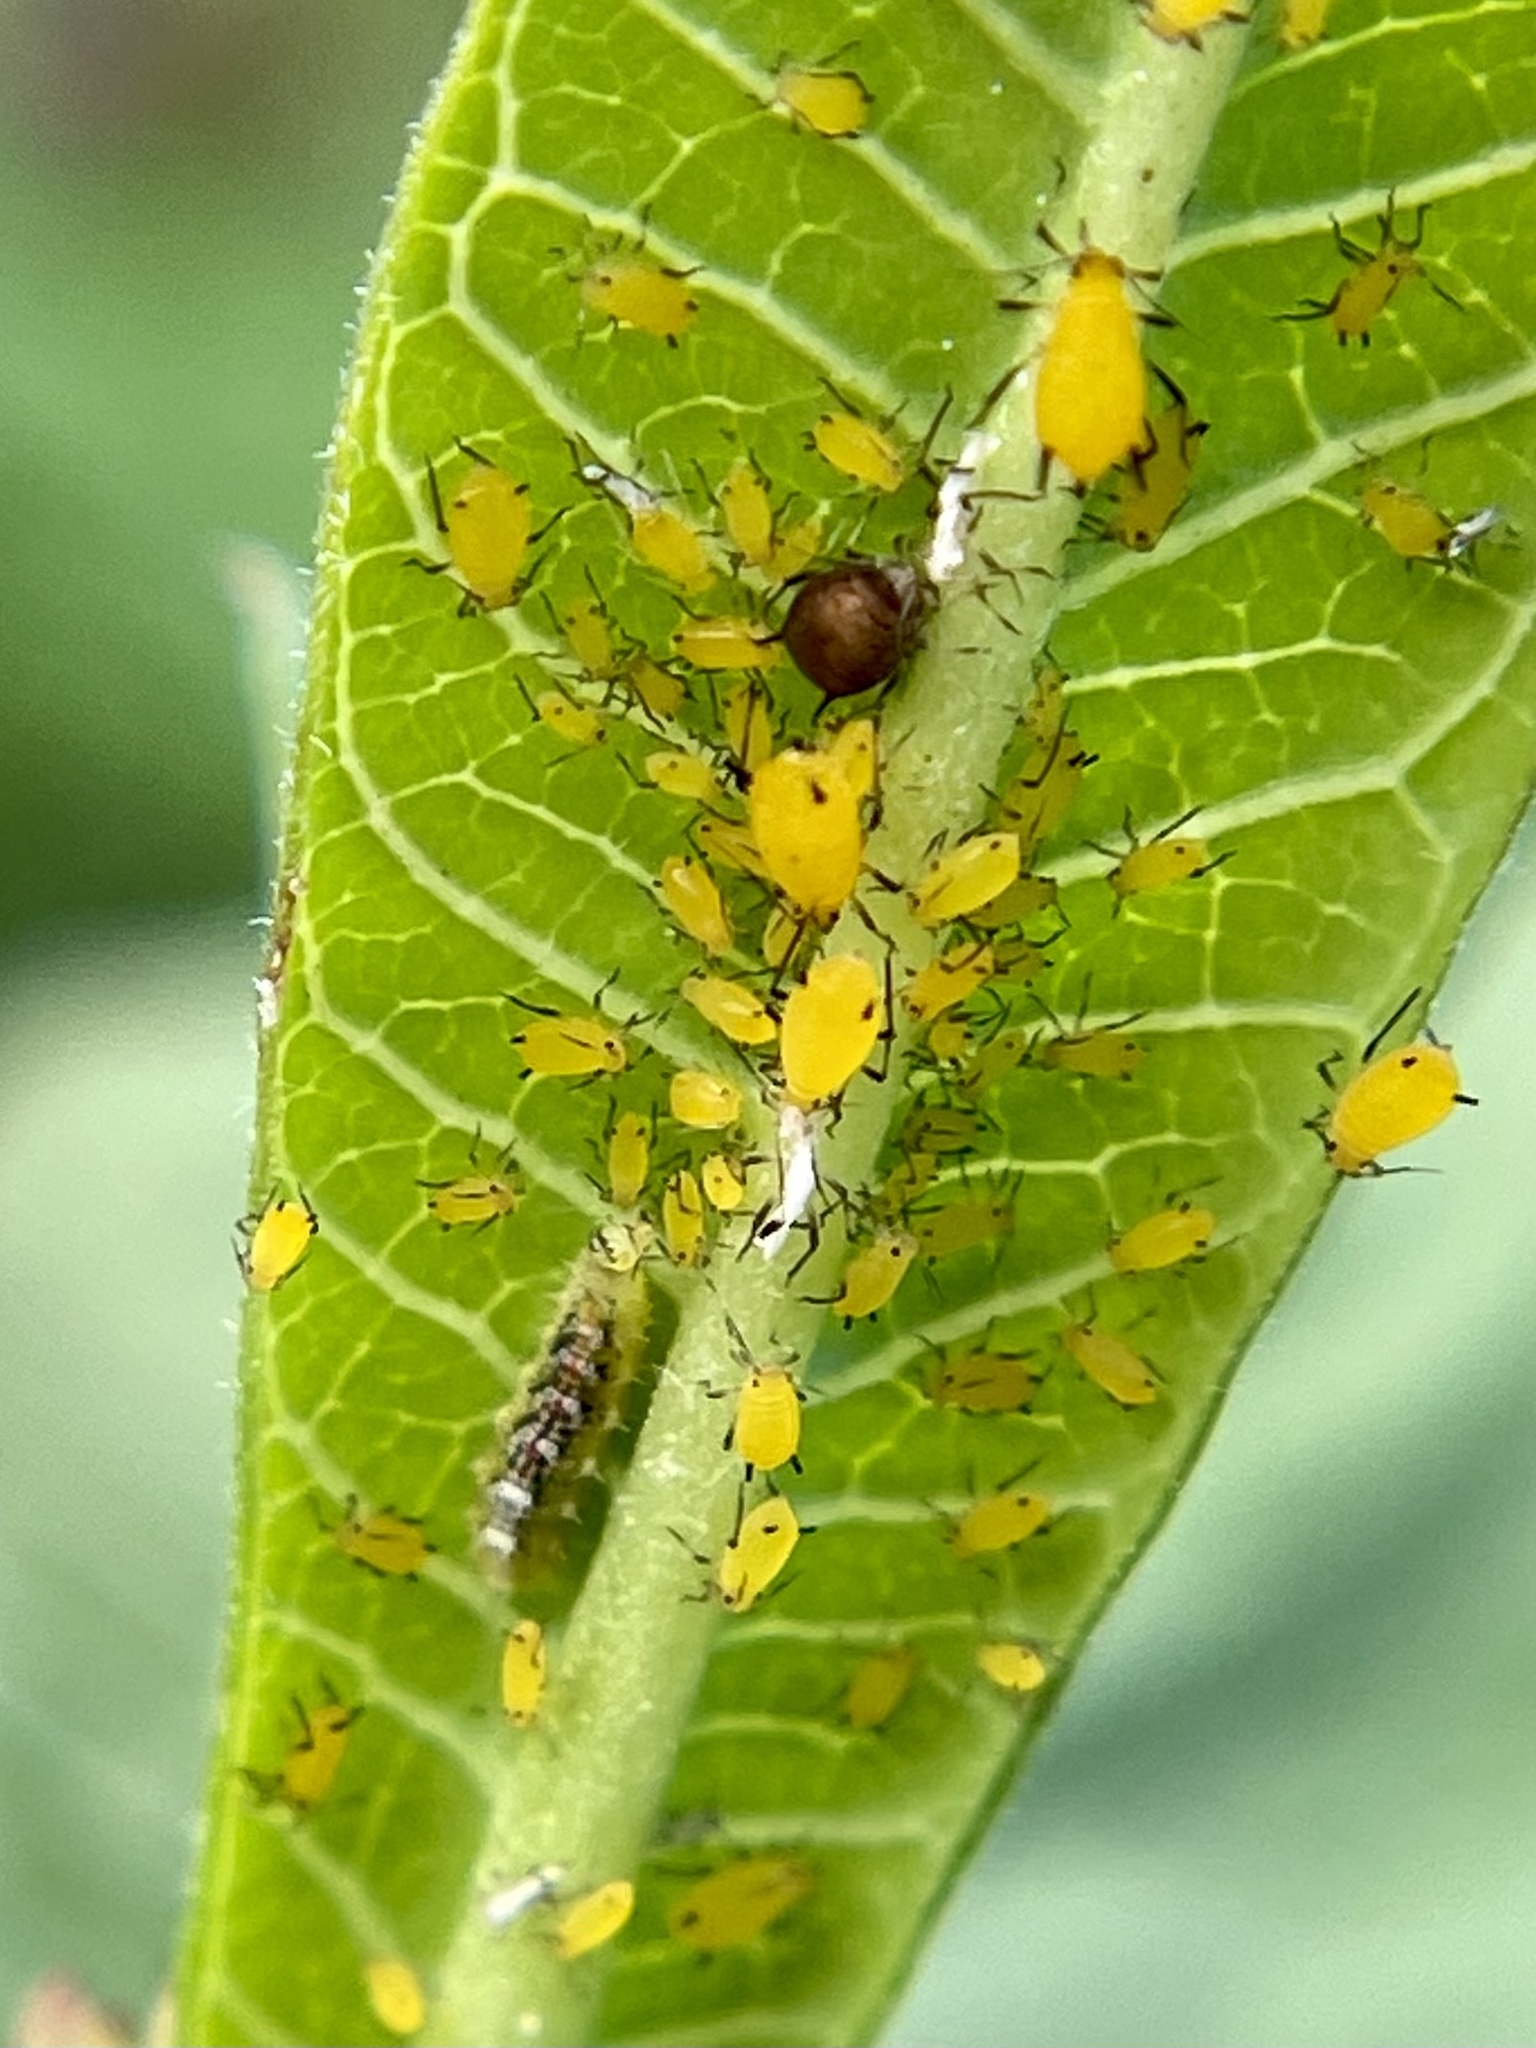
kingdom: Animalia
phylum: Arthropoda
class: Insecta
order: Hemiptera
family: Aphididae
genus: Aphis
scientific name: Aphis nerii
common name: Oleander aphid
